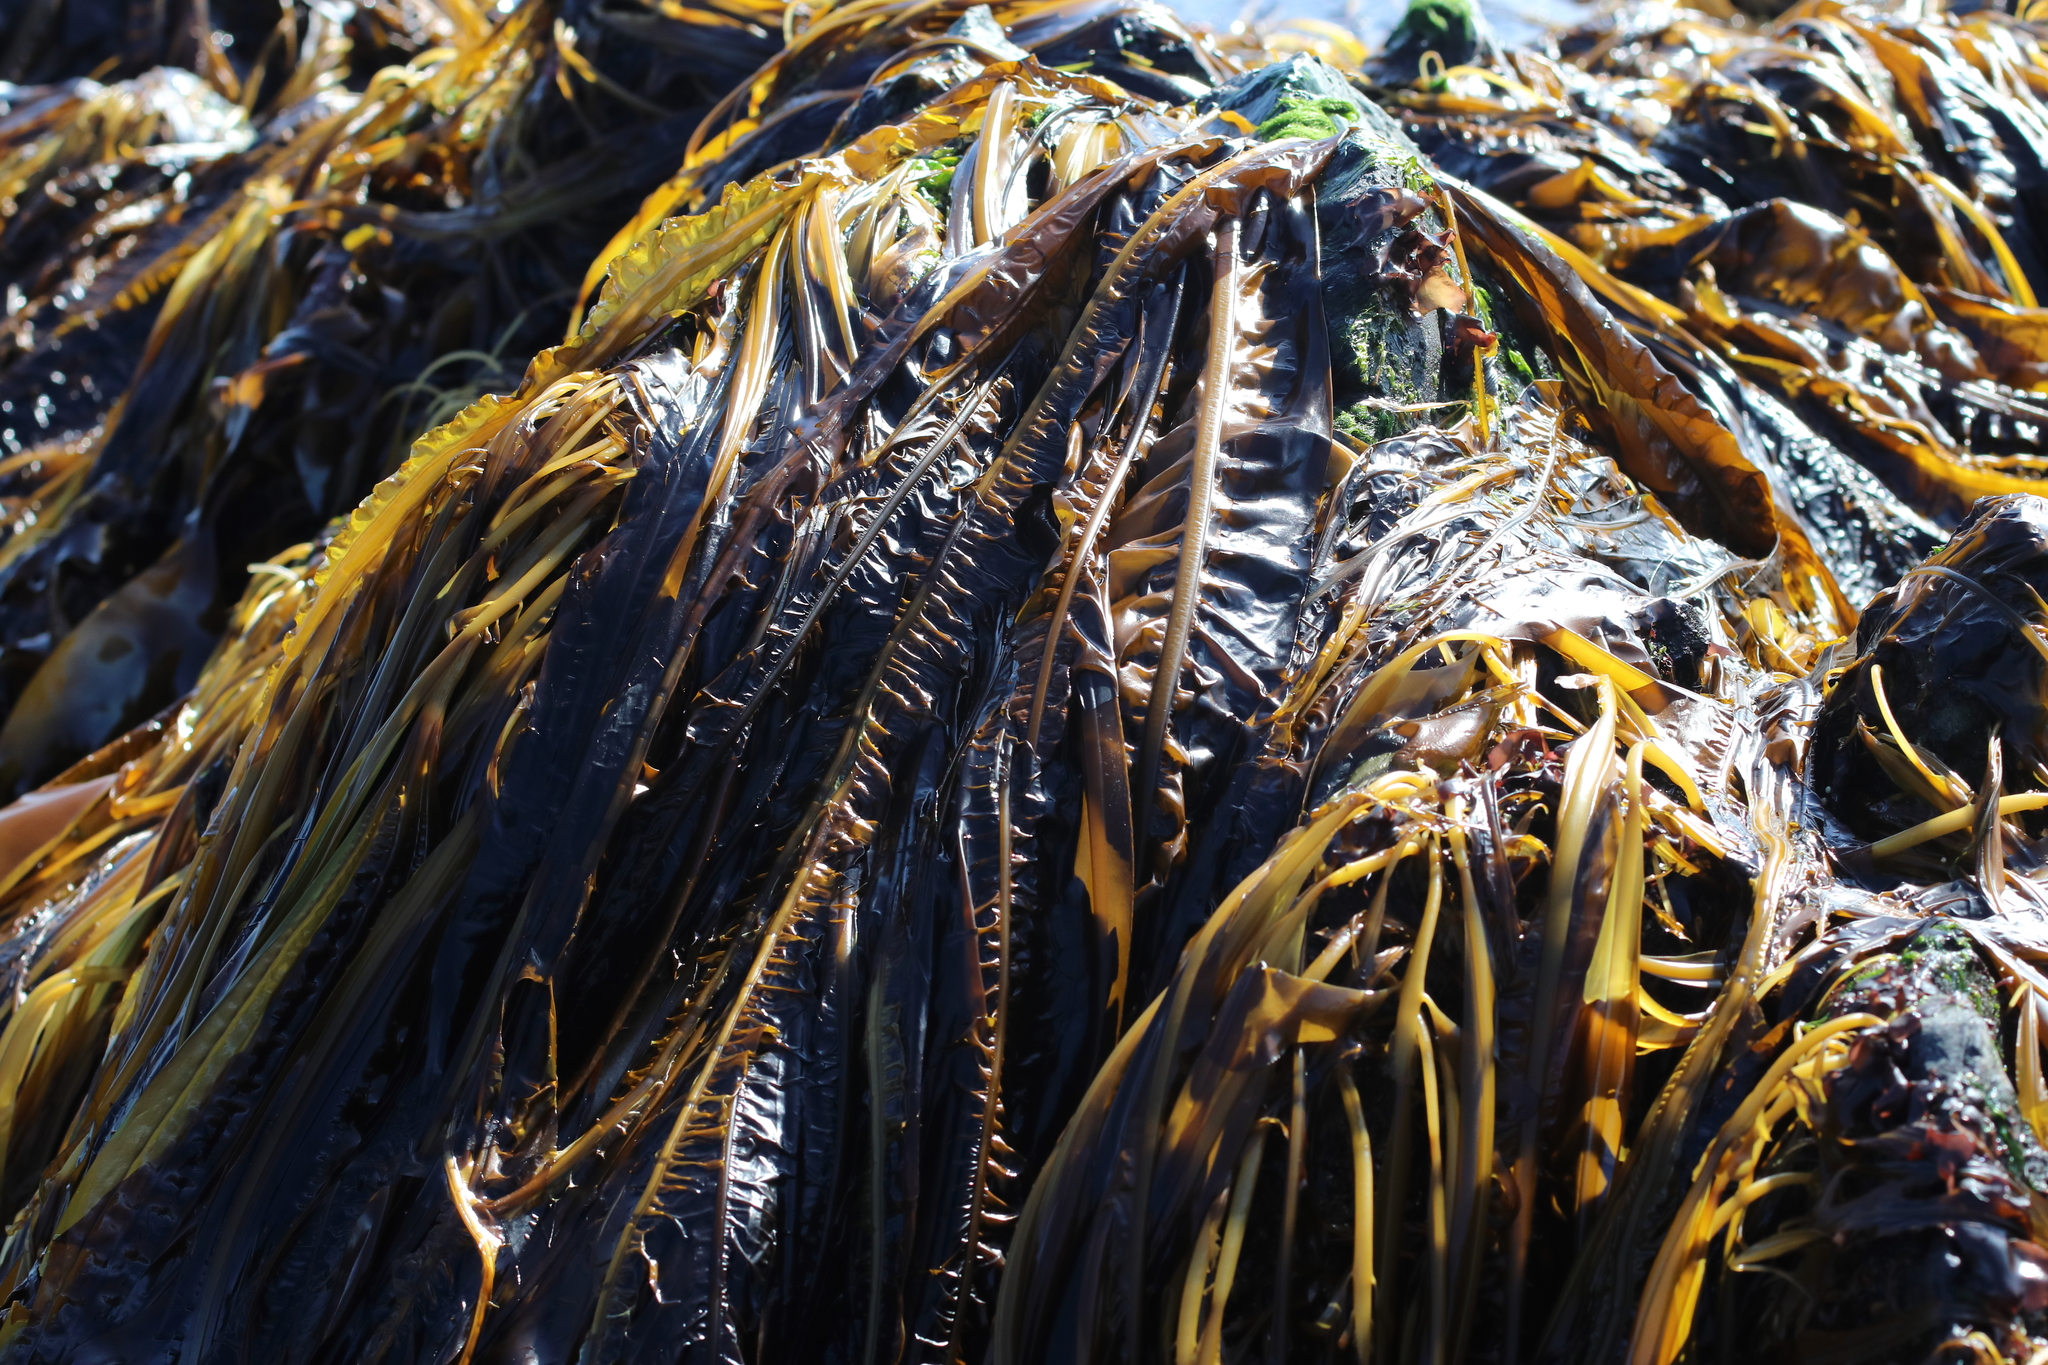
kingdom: Chromista
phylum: Ochrophyta
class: Phaeophyceae
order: Laminariales
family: Alariaceae
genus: Eualaria
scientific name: Eualaria
